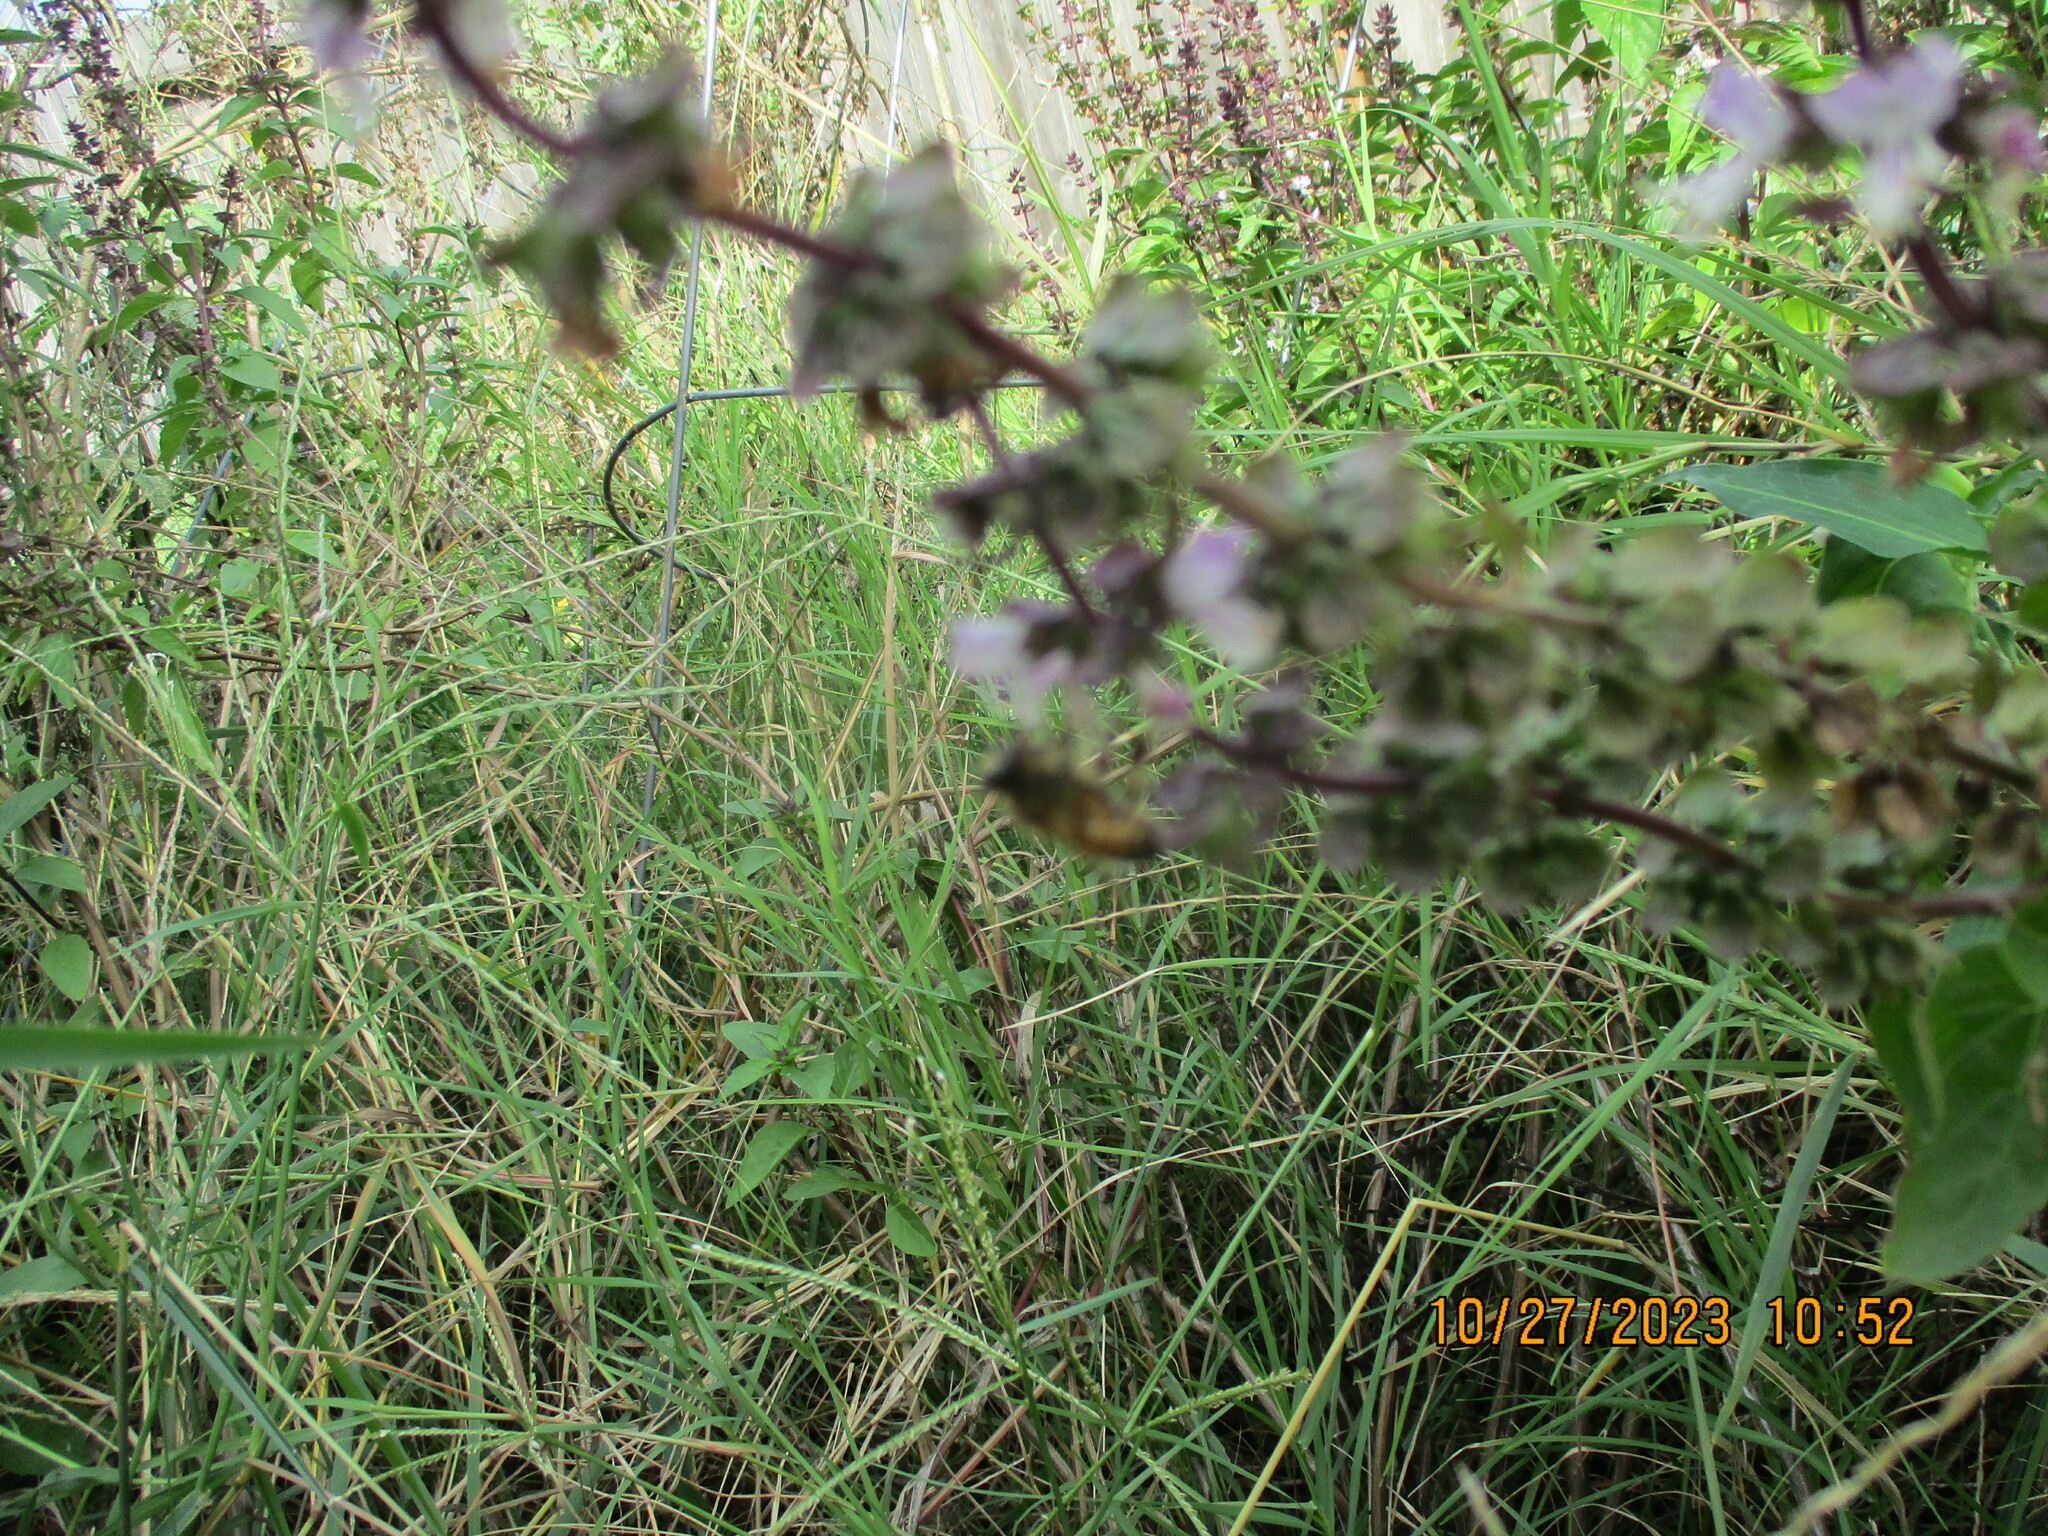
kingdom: Animalia
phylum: Arthropoda
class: Insecta
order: Hymenoptera
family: Apidae
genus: Apis
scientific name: Apis mellifera
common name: Honey bee
